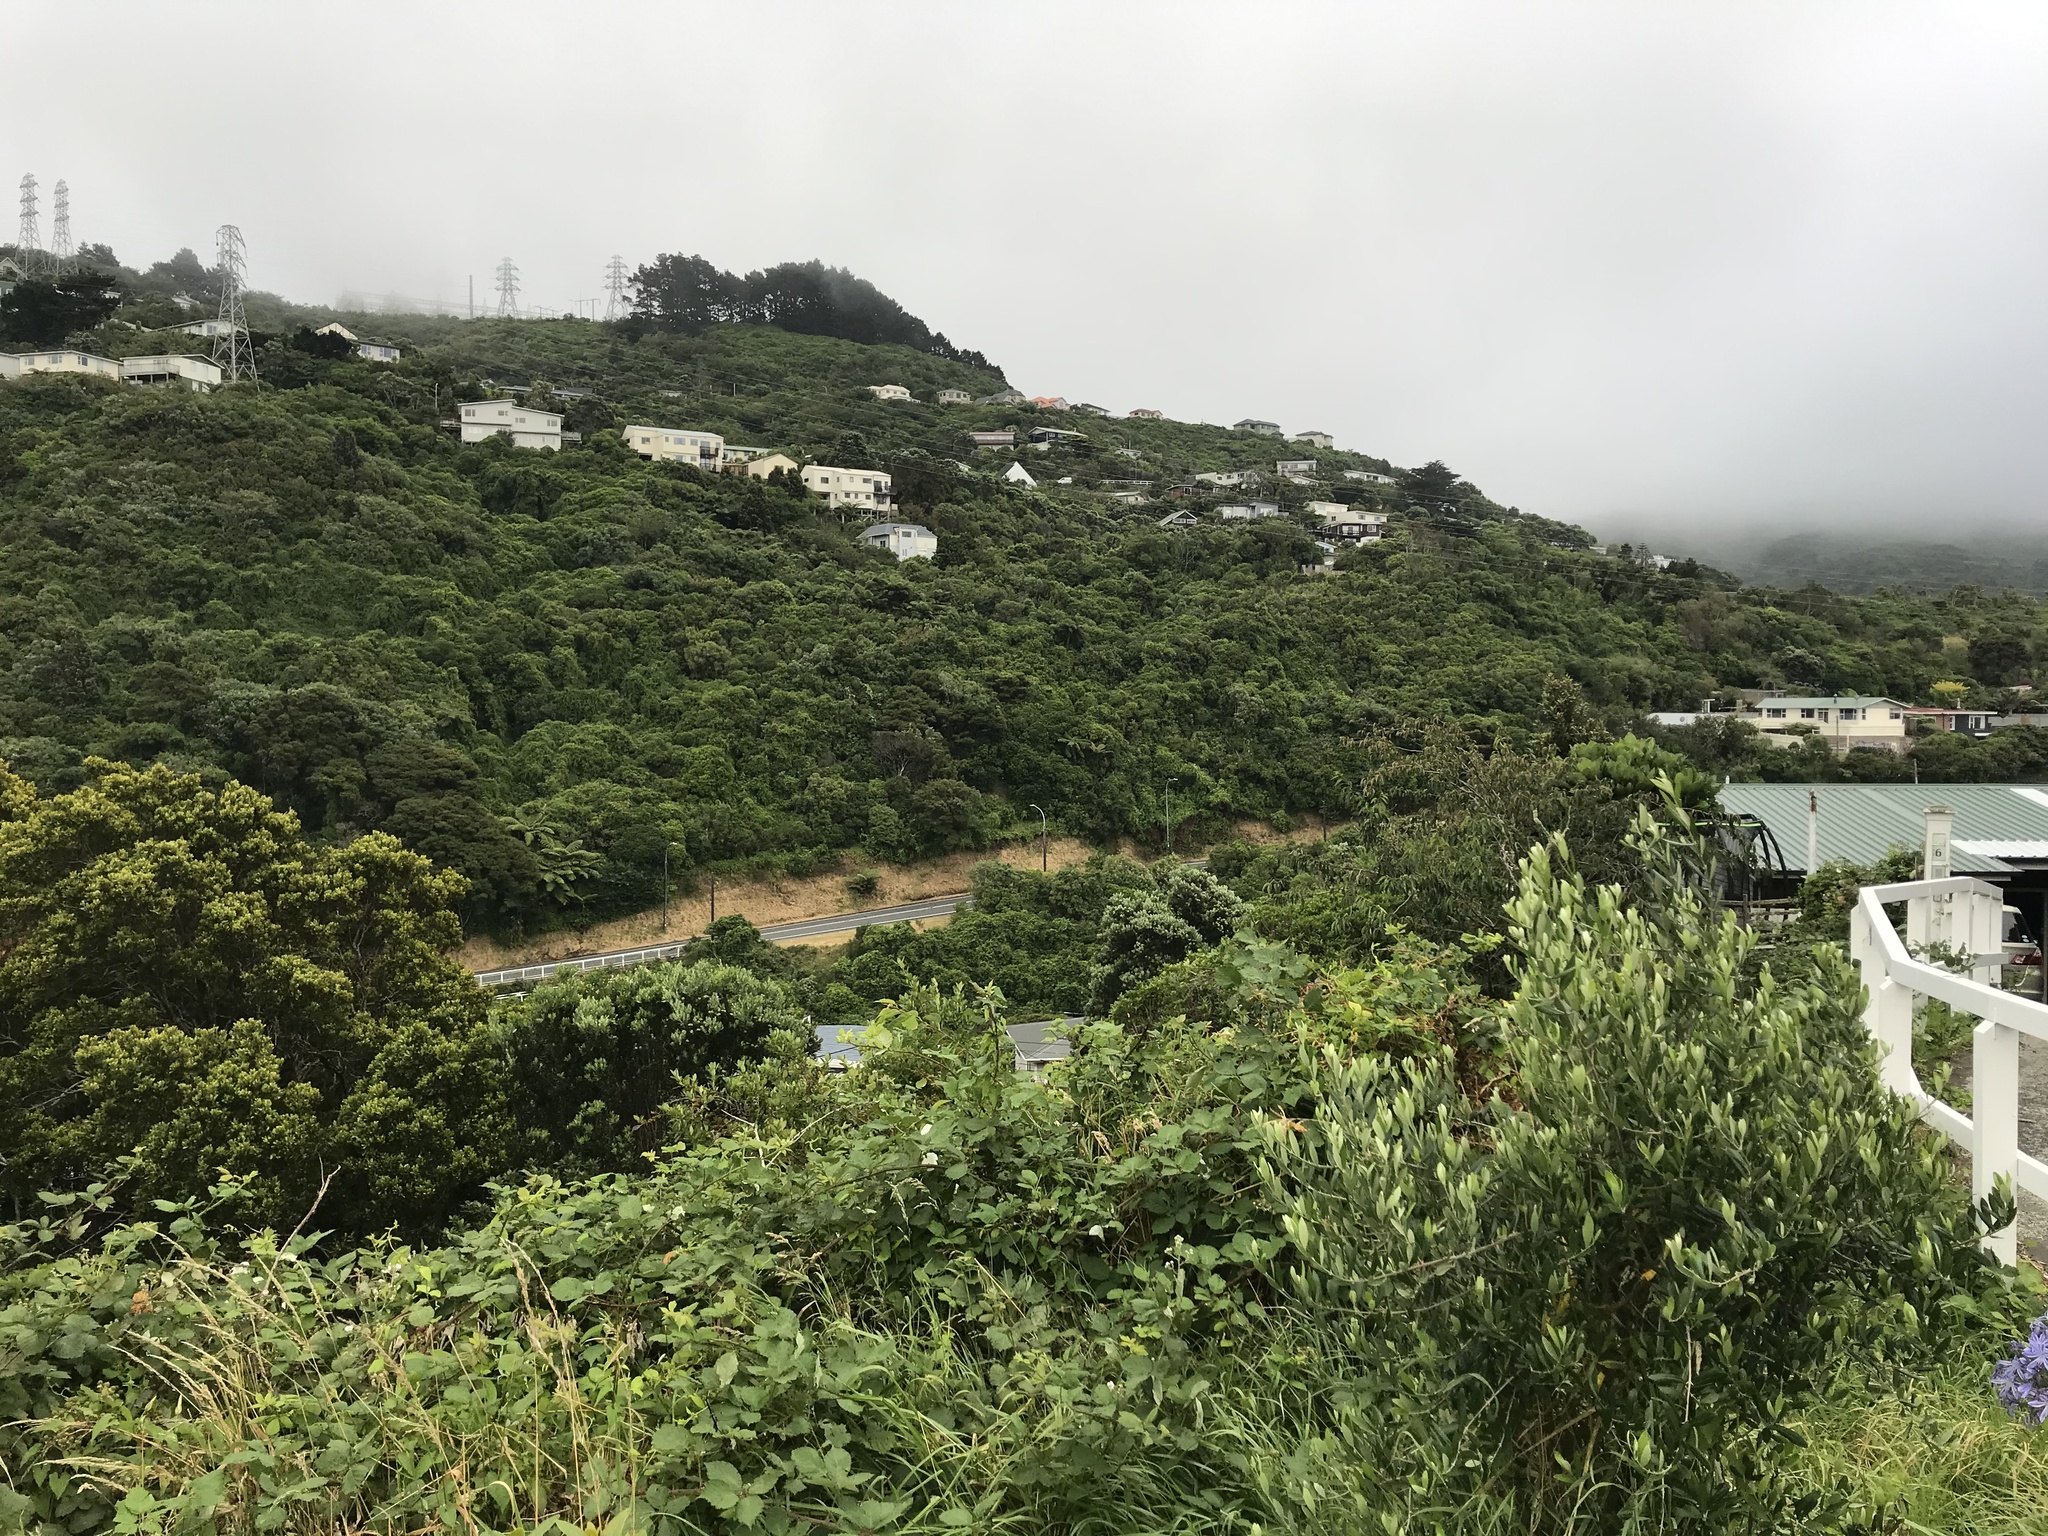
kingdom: Plantae
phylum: Tracheophyta
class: Magnoliopsida
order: Ranunculales
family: Ranunculaceae
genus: Clematis
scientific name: Clematis vitalba
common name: Evergreen clematis
